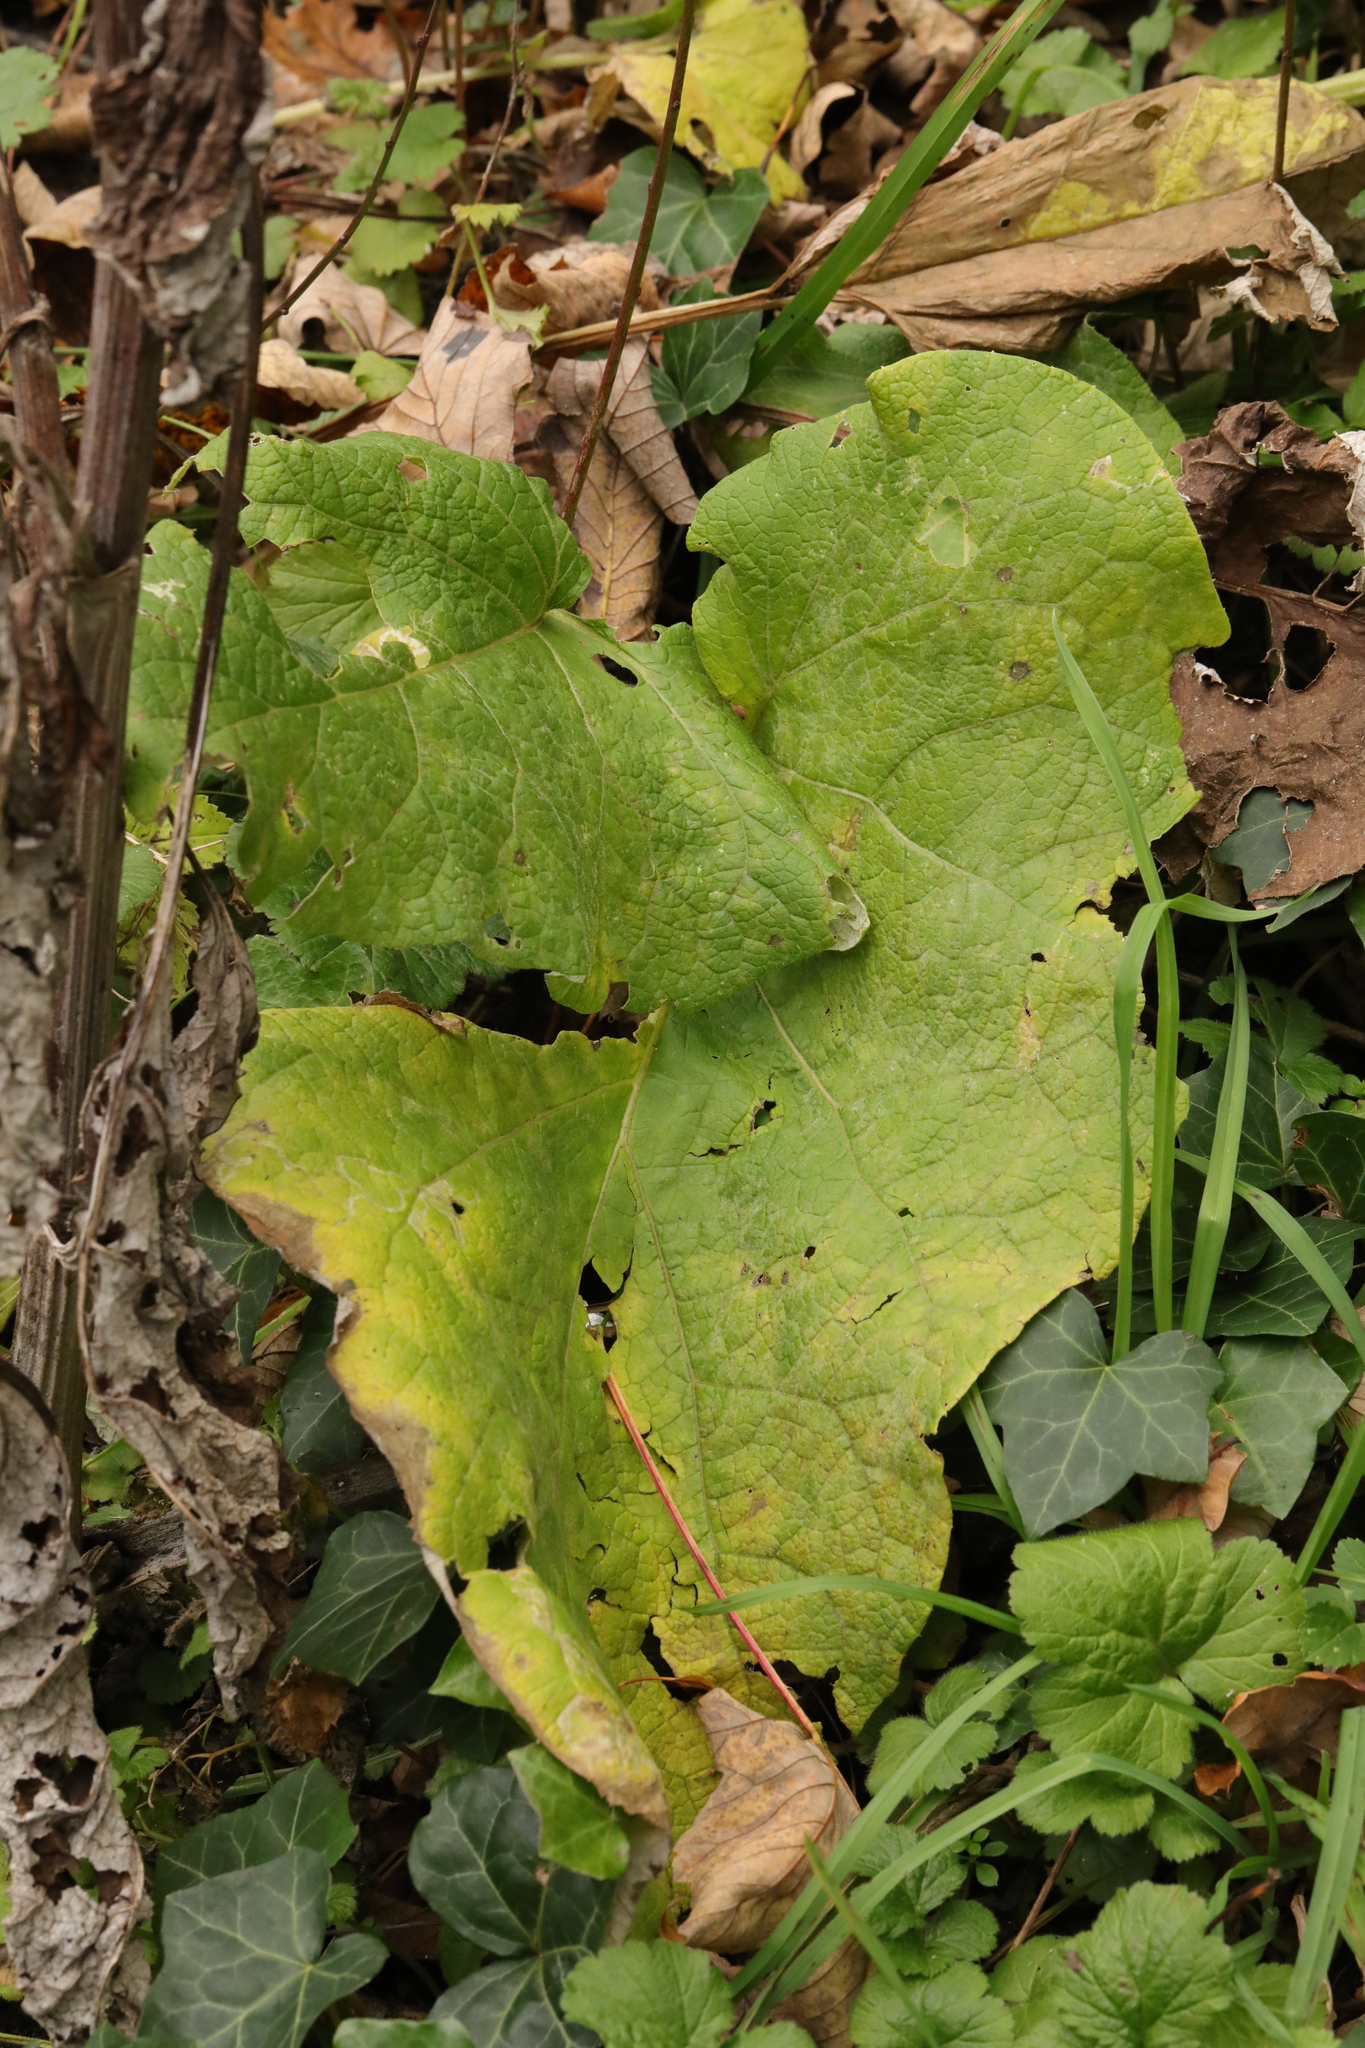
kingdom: Plantae
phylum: Tracheophyta
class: Magnoliopsida
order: Asterales
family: Asteraceae
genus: Arctium
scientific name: Arctium minus
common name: Lesser burdock
